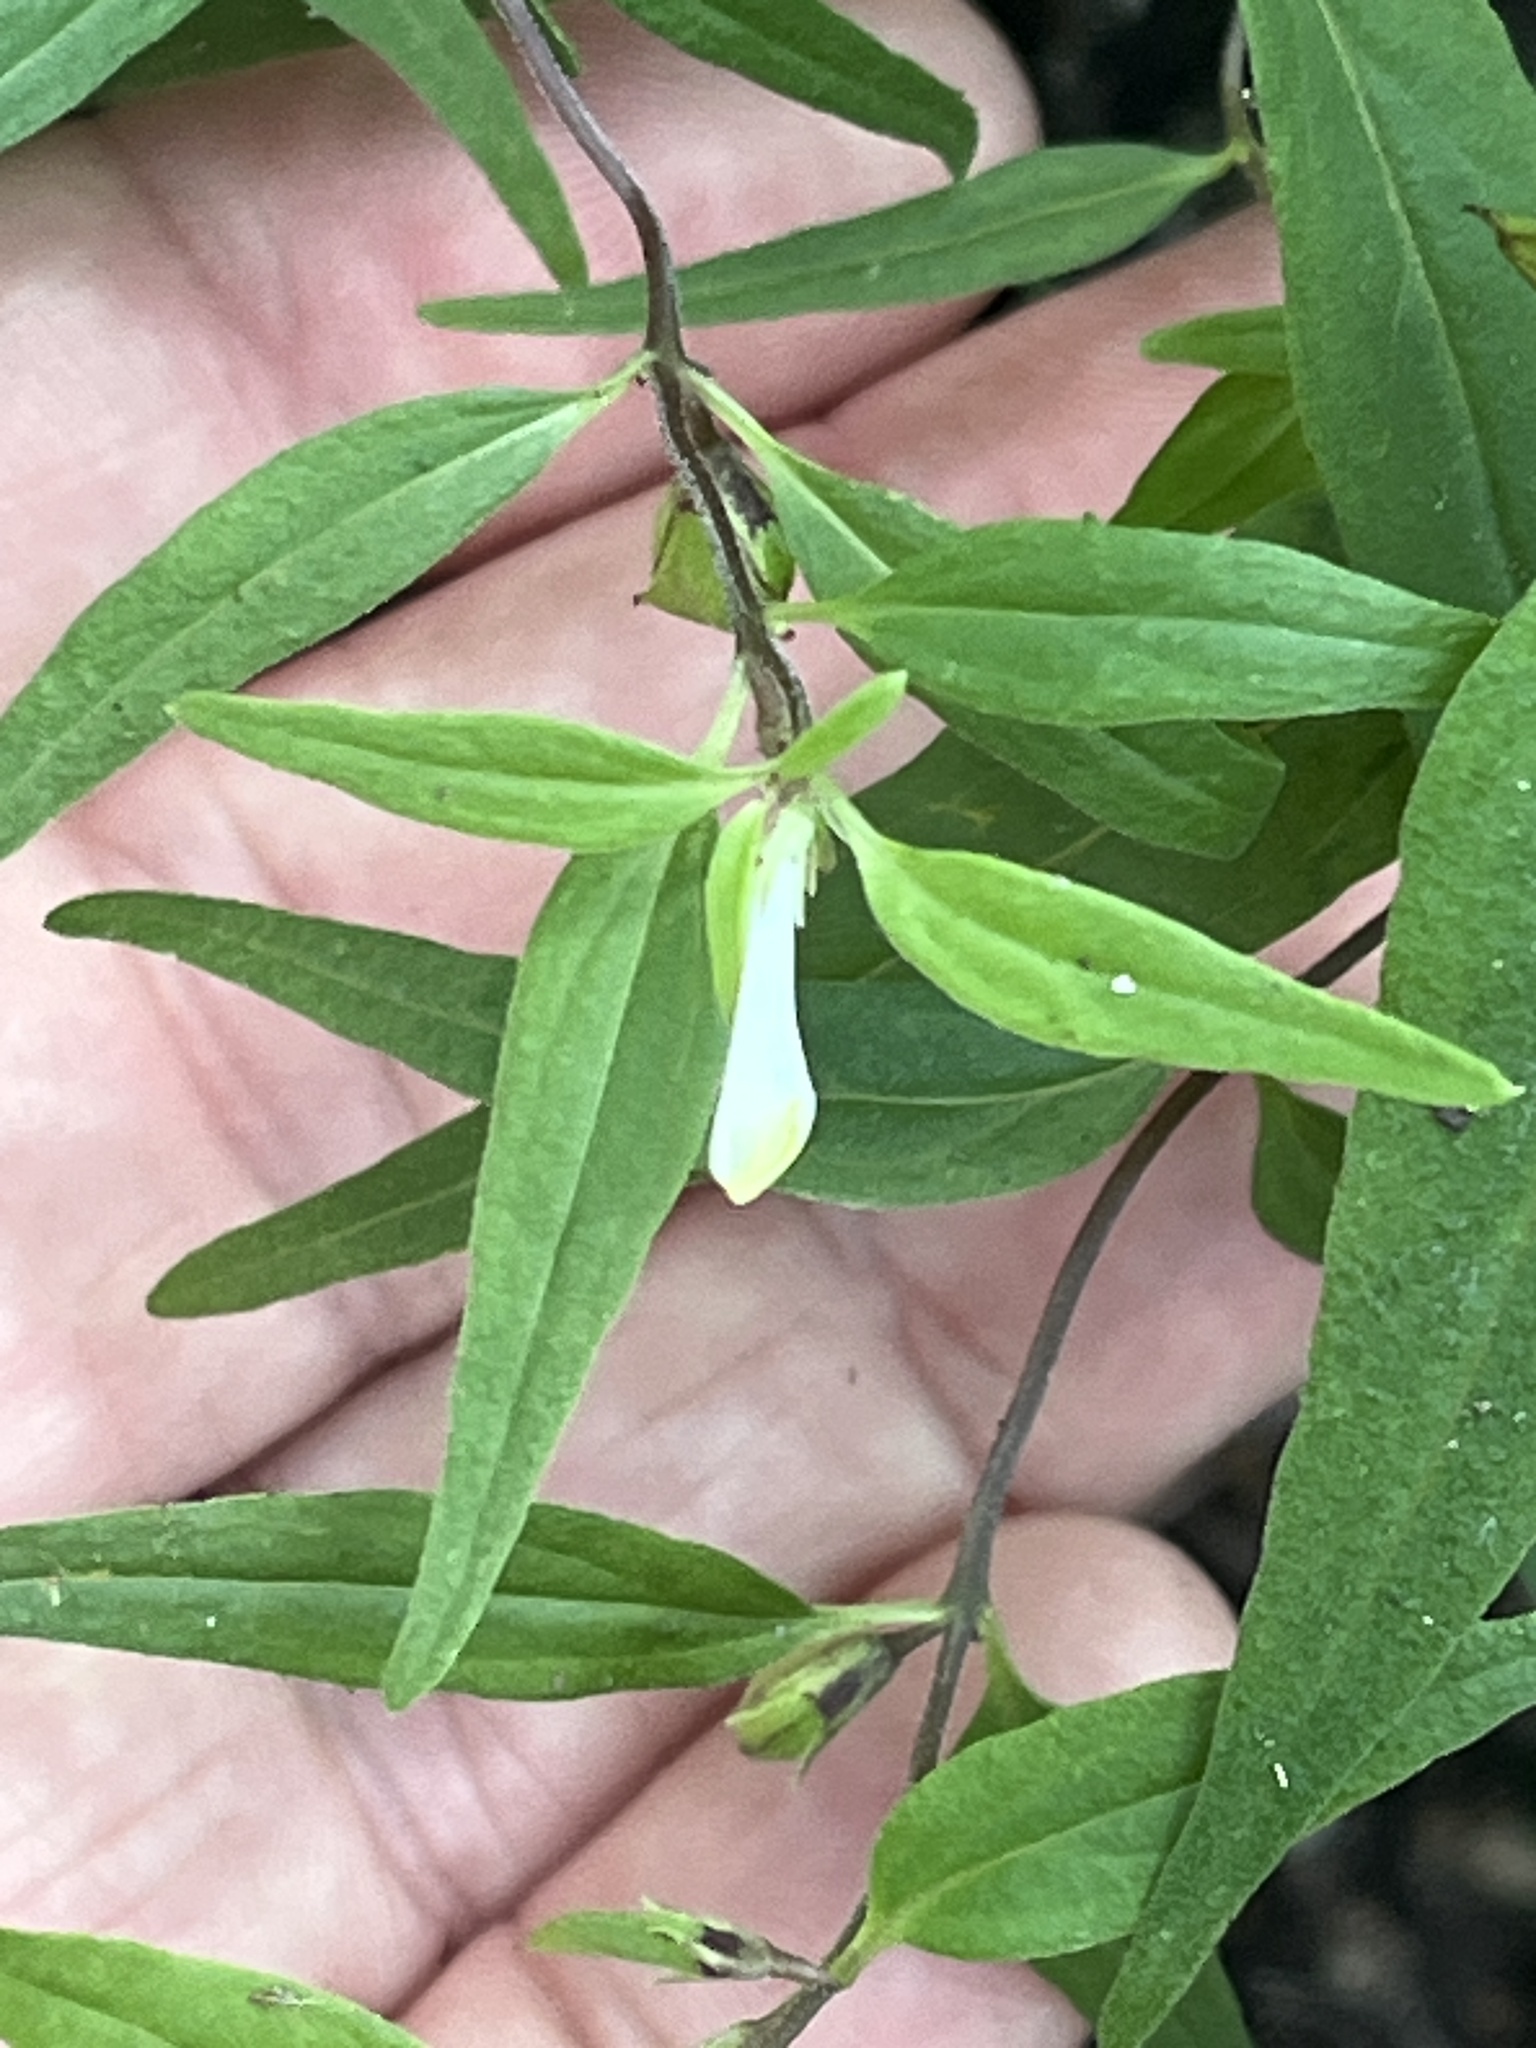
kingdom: Plantae
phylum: Tracheophyta
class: Magnoliopsida
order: Lamiales
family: Orobanchaceae
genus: Melampyrum
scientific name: Melampyrum lineare
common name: American cow-wheat
